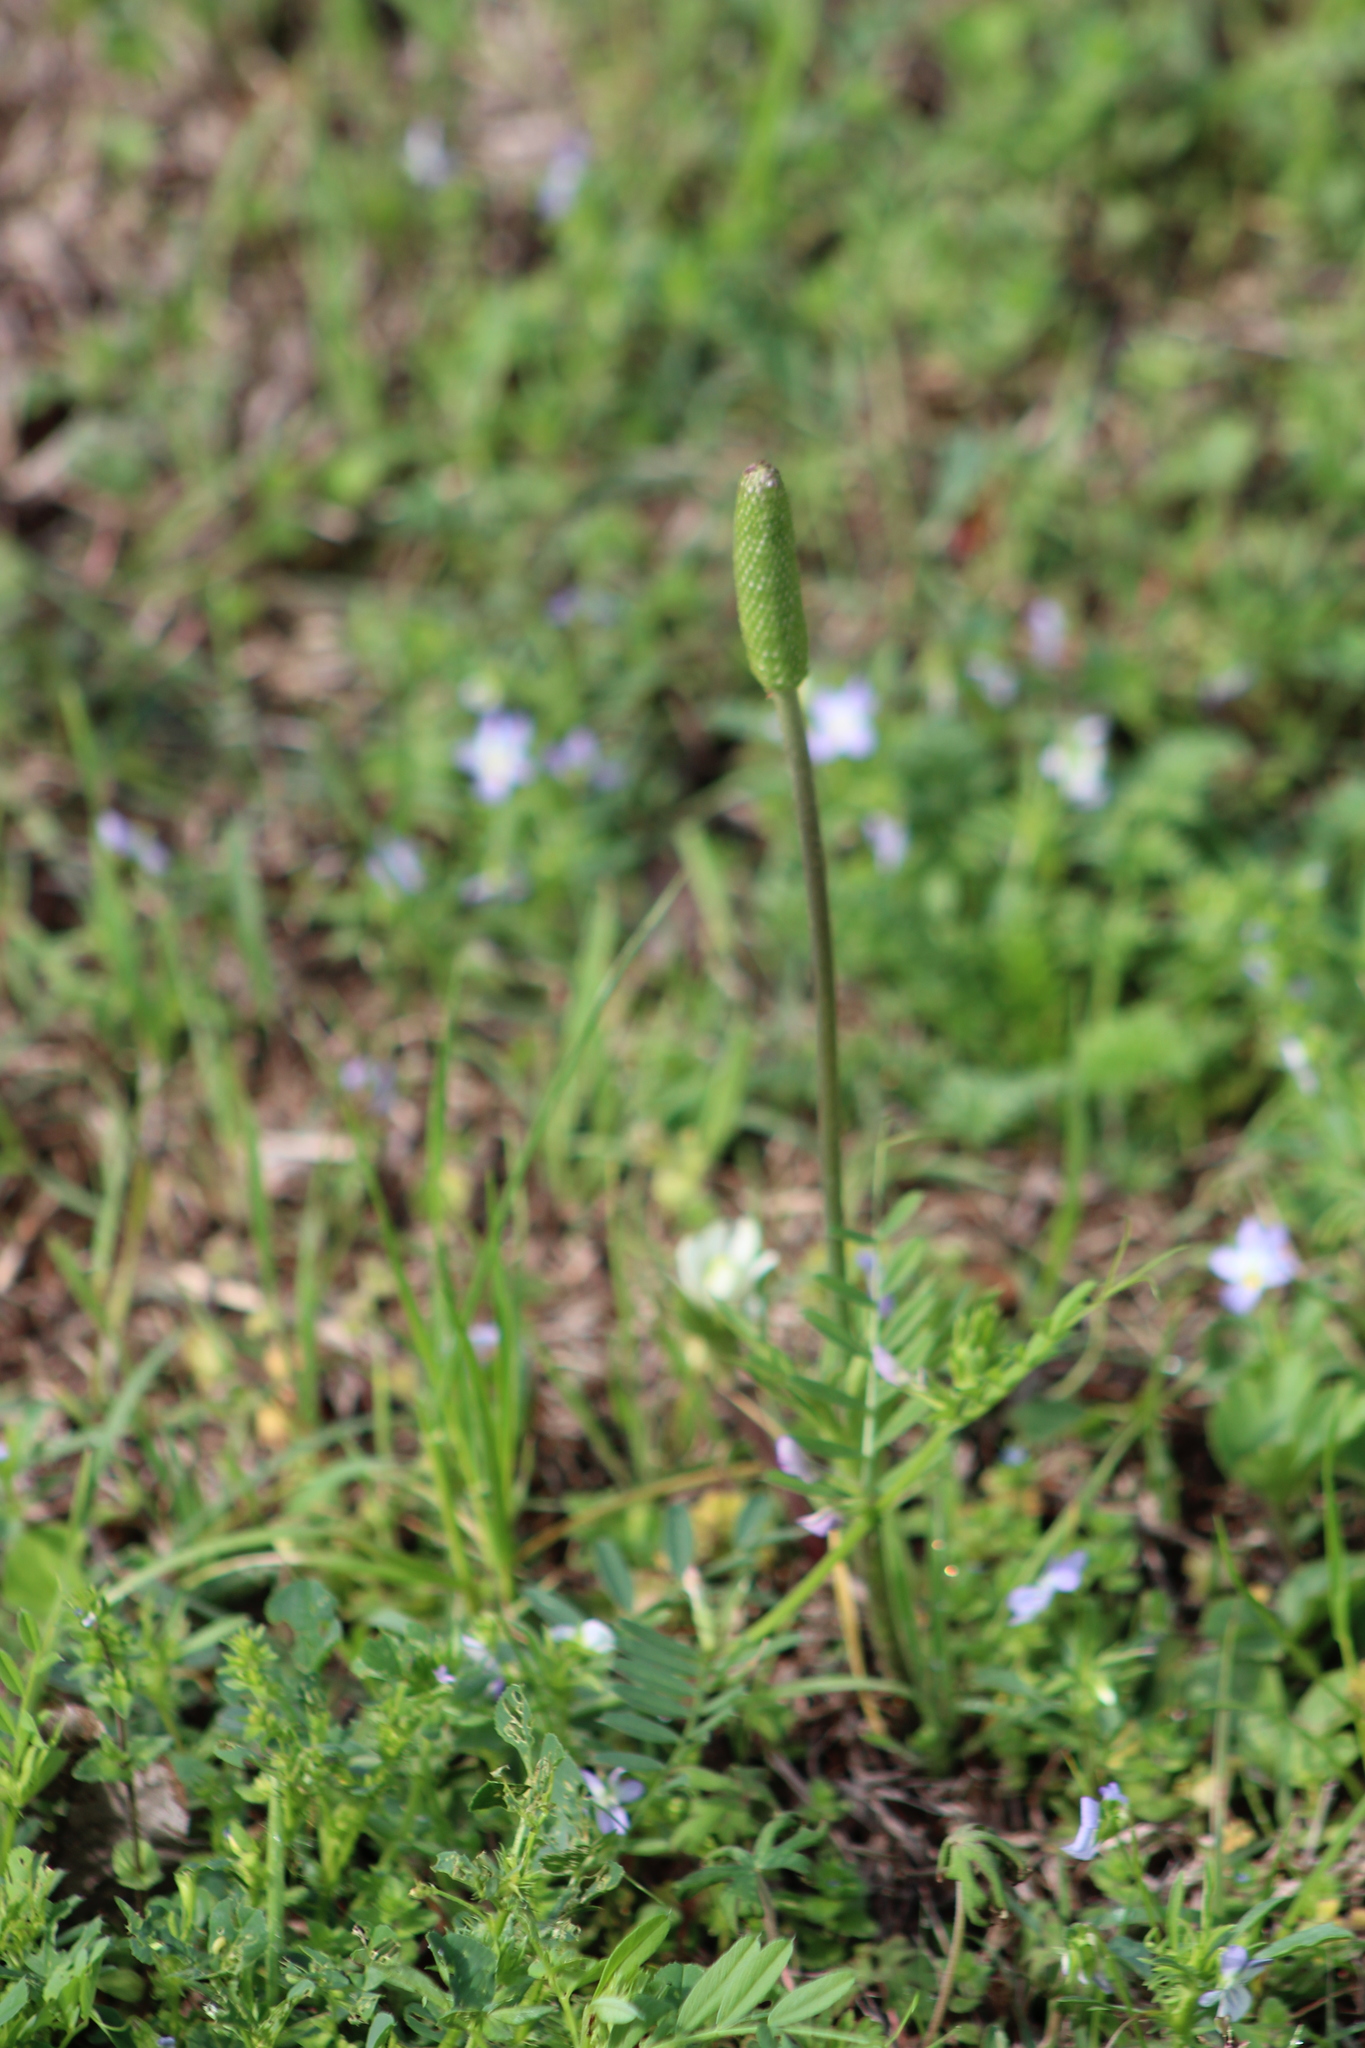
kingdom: Plantae
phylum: Tracheophyta
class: Magnoliopsida
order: Ranunculales
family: Ranunculaceae
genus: Anemone
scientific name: Anemone berlandieri
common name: Ten-petal anemone
